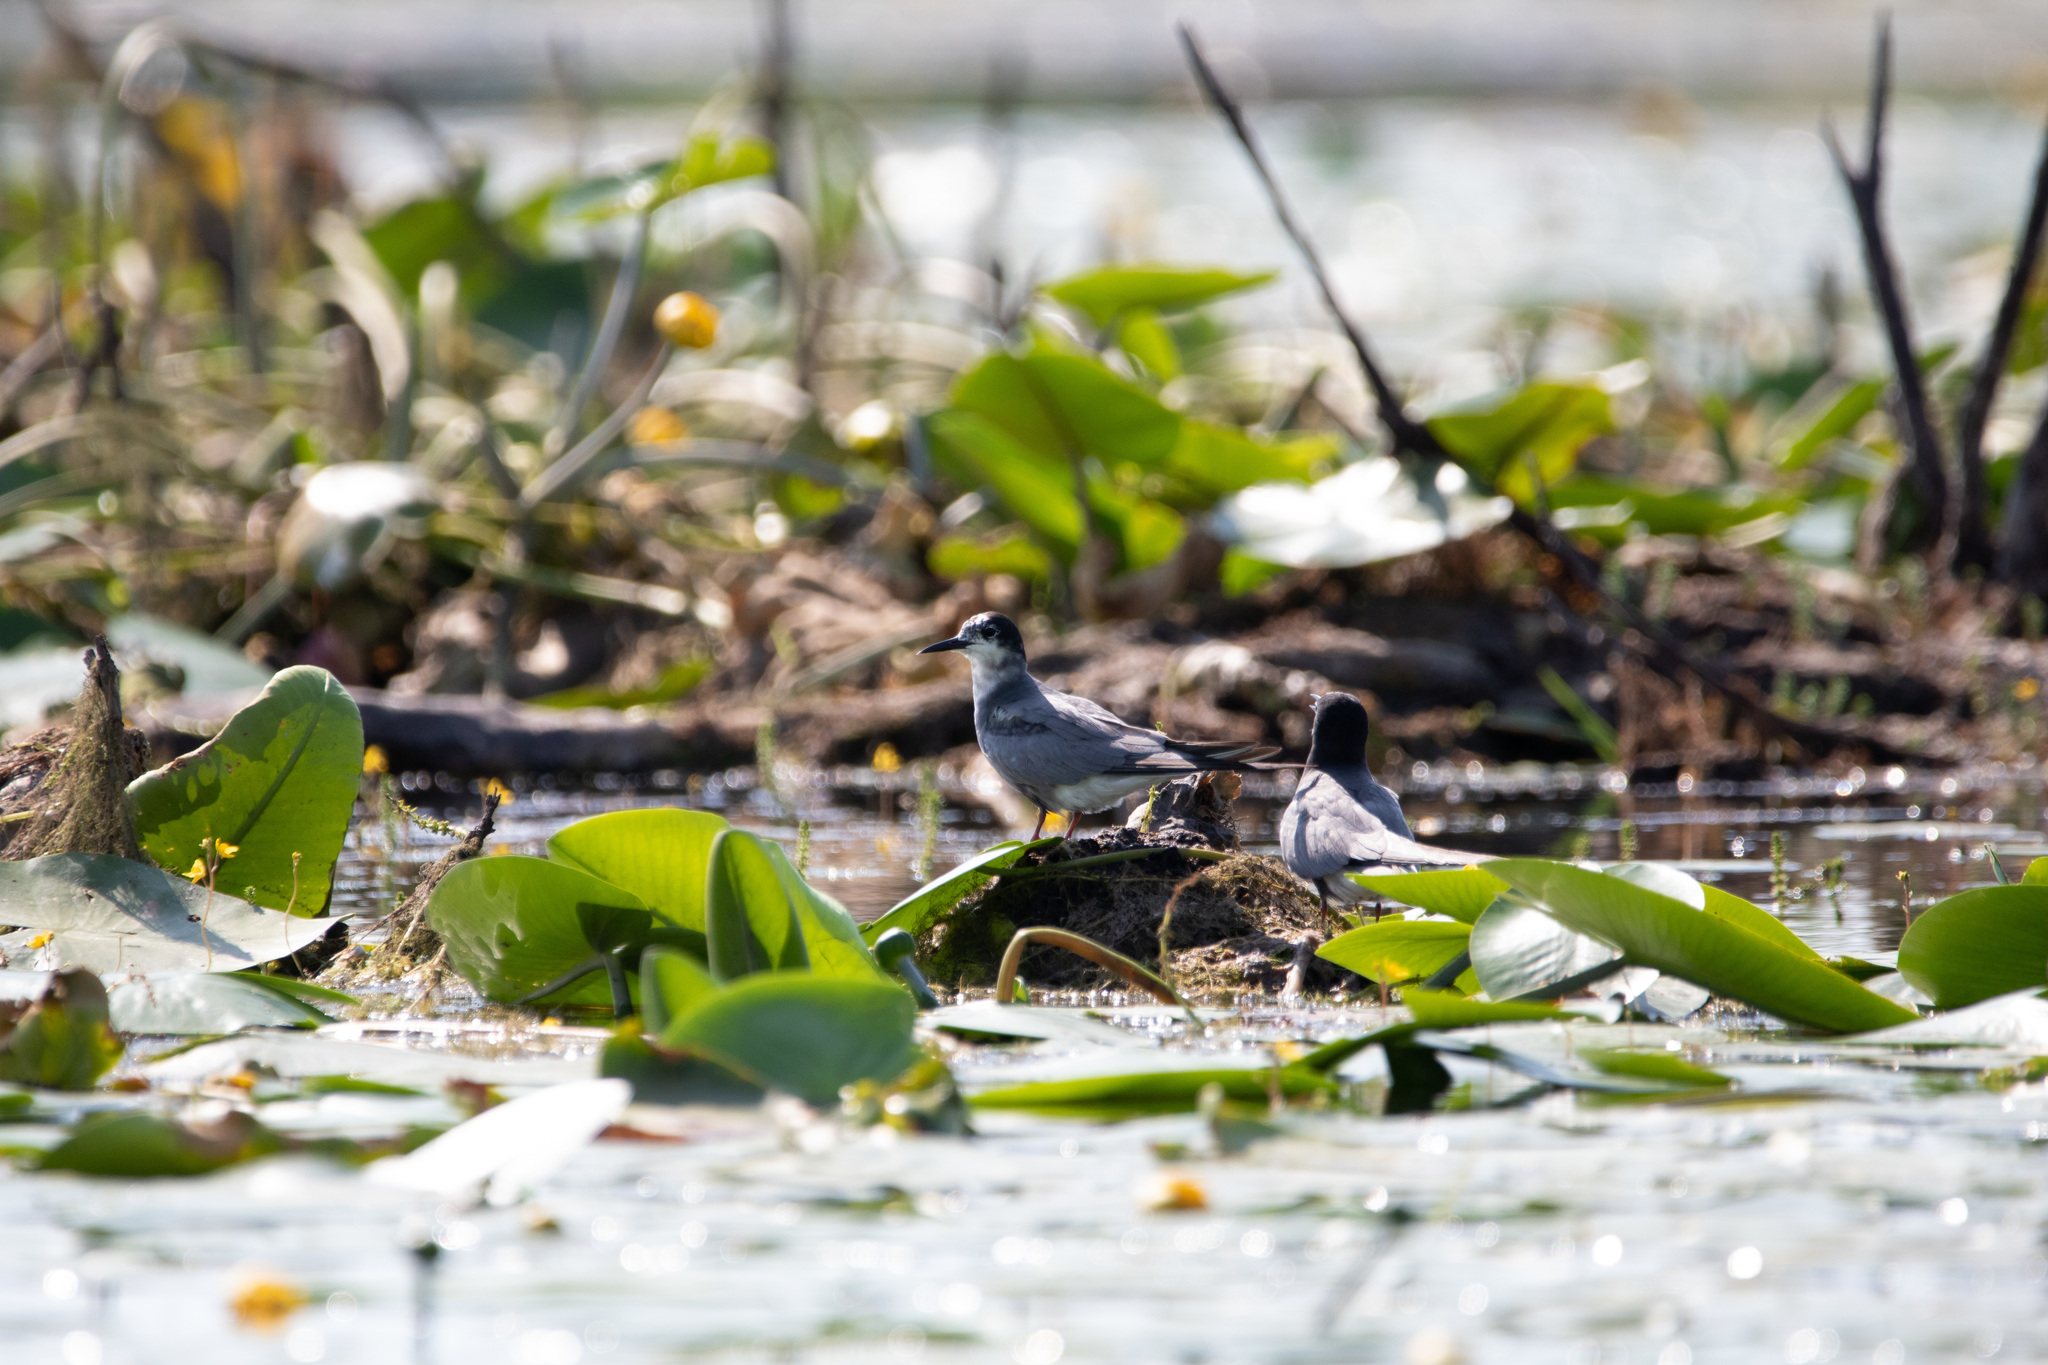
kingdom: Animalia
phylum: Chordata
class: Aves
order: Charadriiformes
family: Laridae
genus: Chlidonias
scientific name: Chlidonias niger
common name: Black tern
